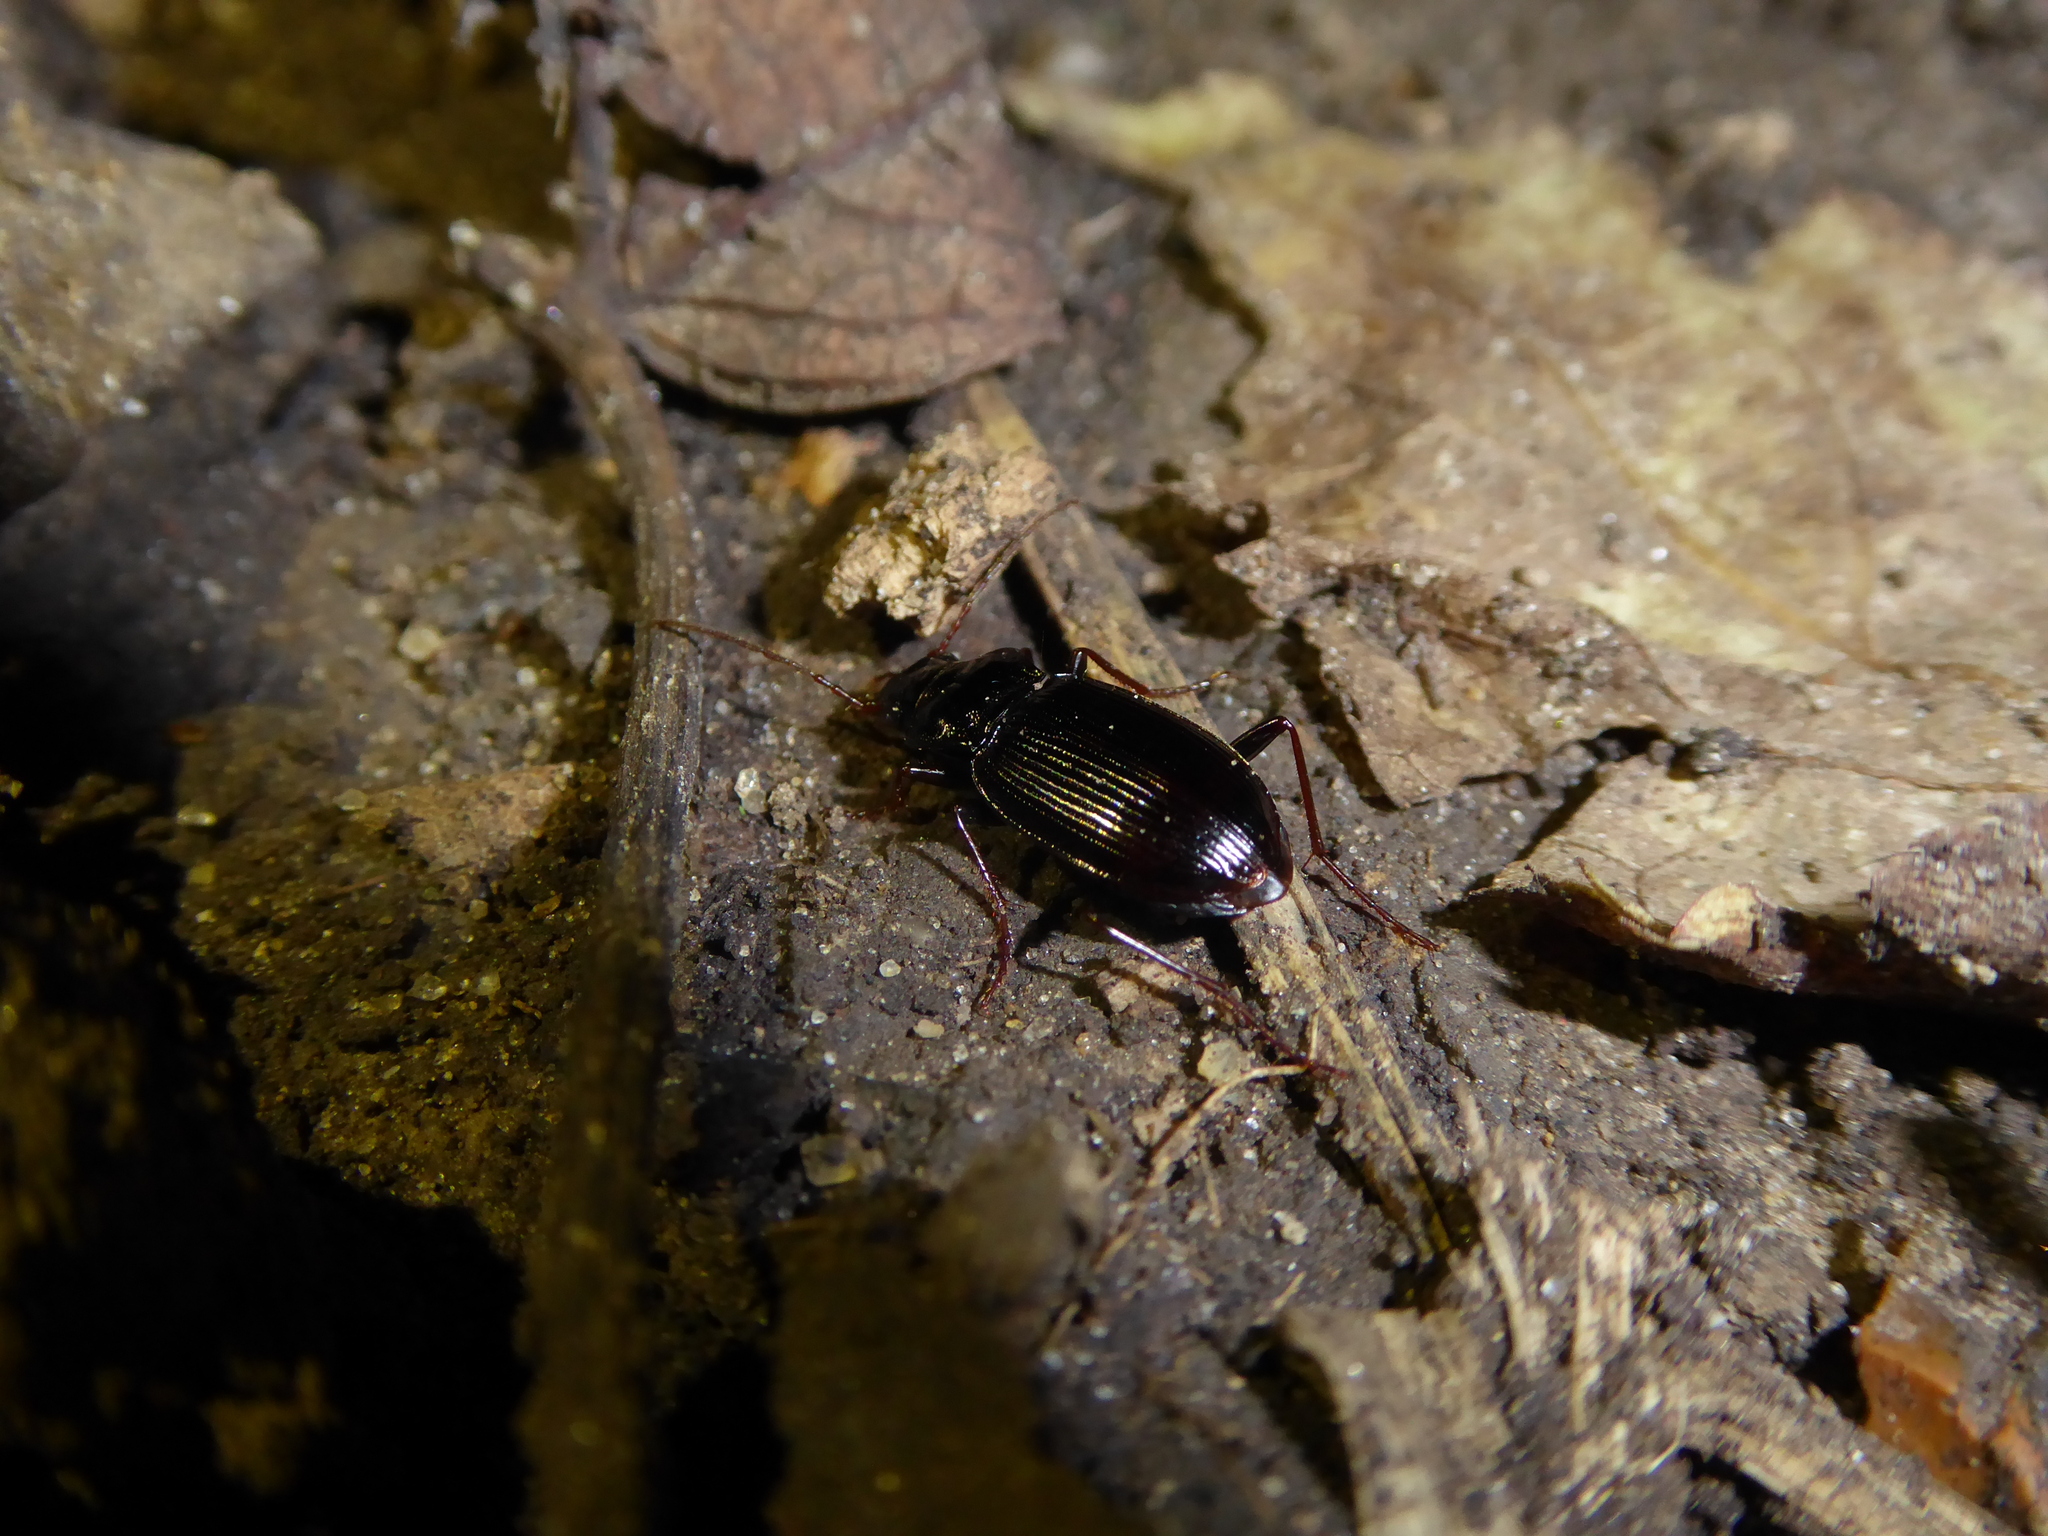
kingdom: Animalia
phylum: Arthropoda
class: Insecta
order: Coleoptera
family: Carabidae
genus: Nebria
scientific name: Nebria brevicollis
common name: Short-necked gazelle beetle
